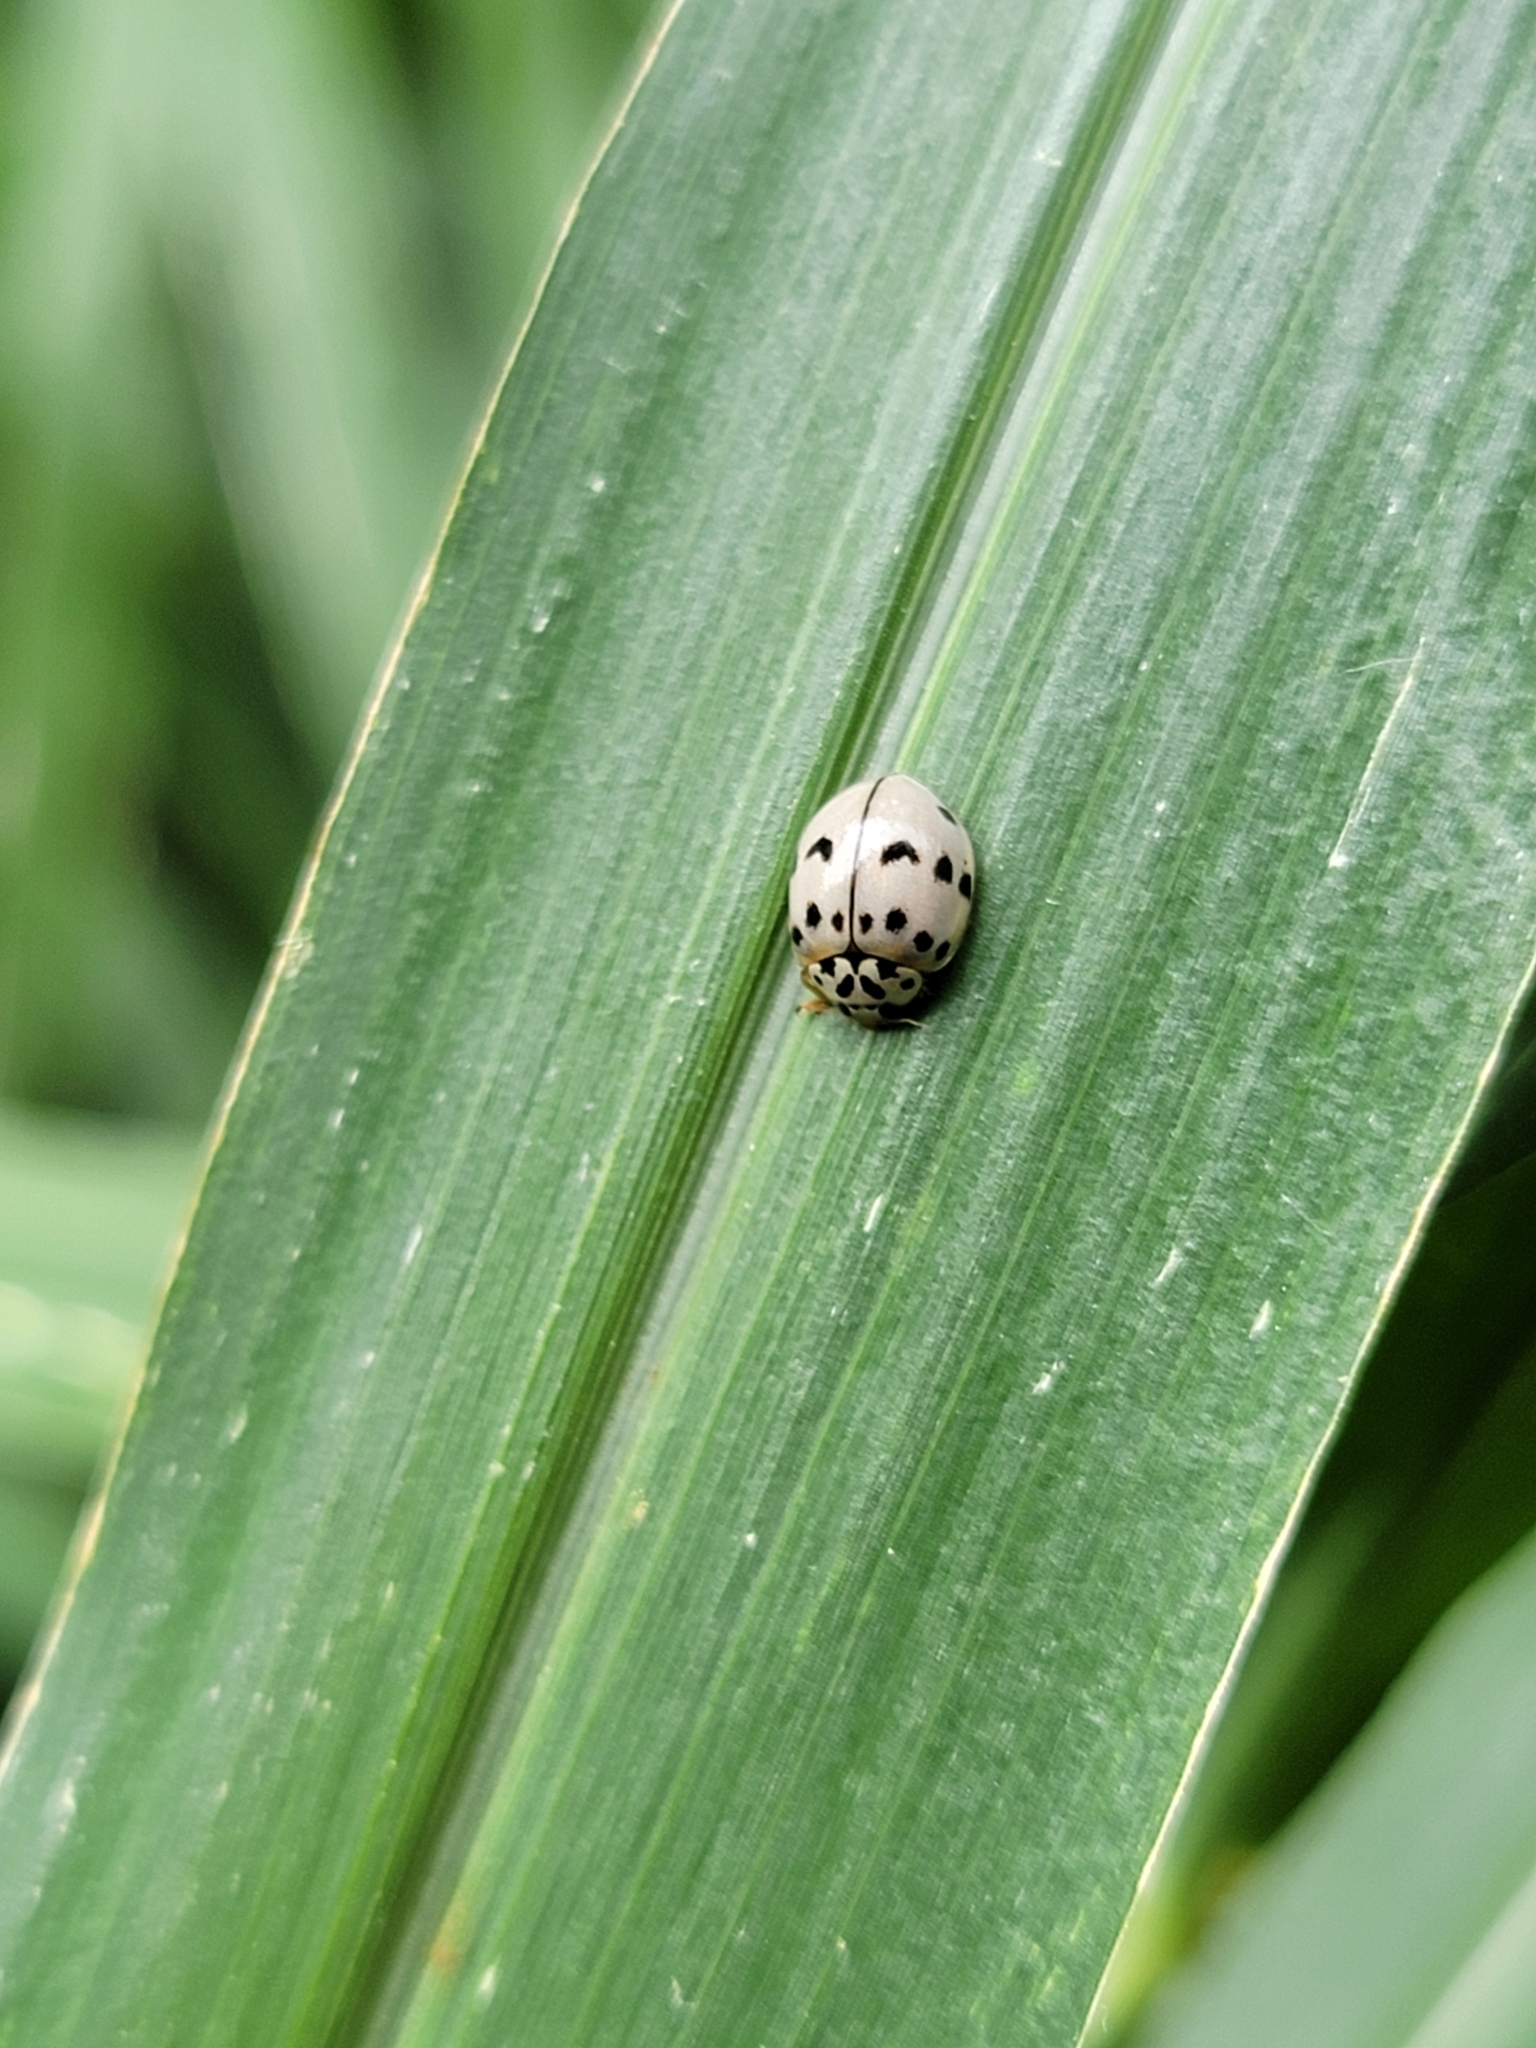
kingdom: Animalia
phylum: Arthropoda
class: Insecta
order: Coleoptera
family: Coccinellidae
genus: Olla
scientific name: Olla v-nigrum
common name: Ashy gray lady beetle
